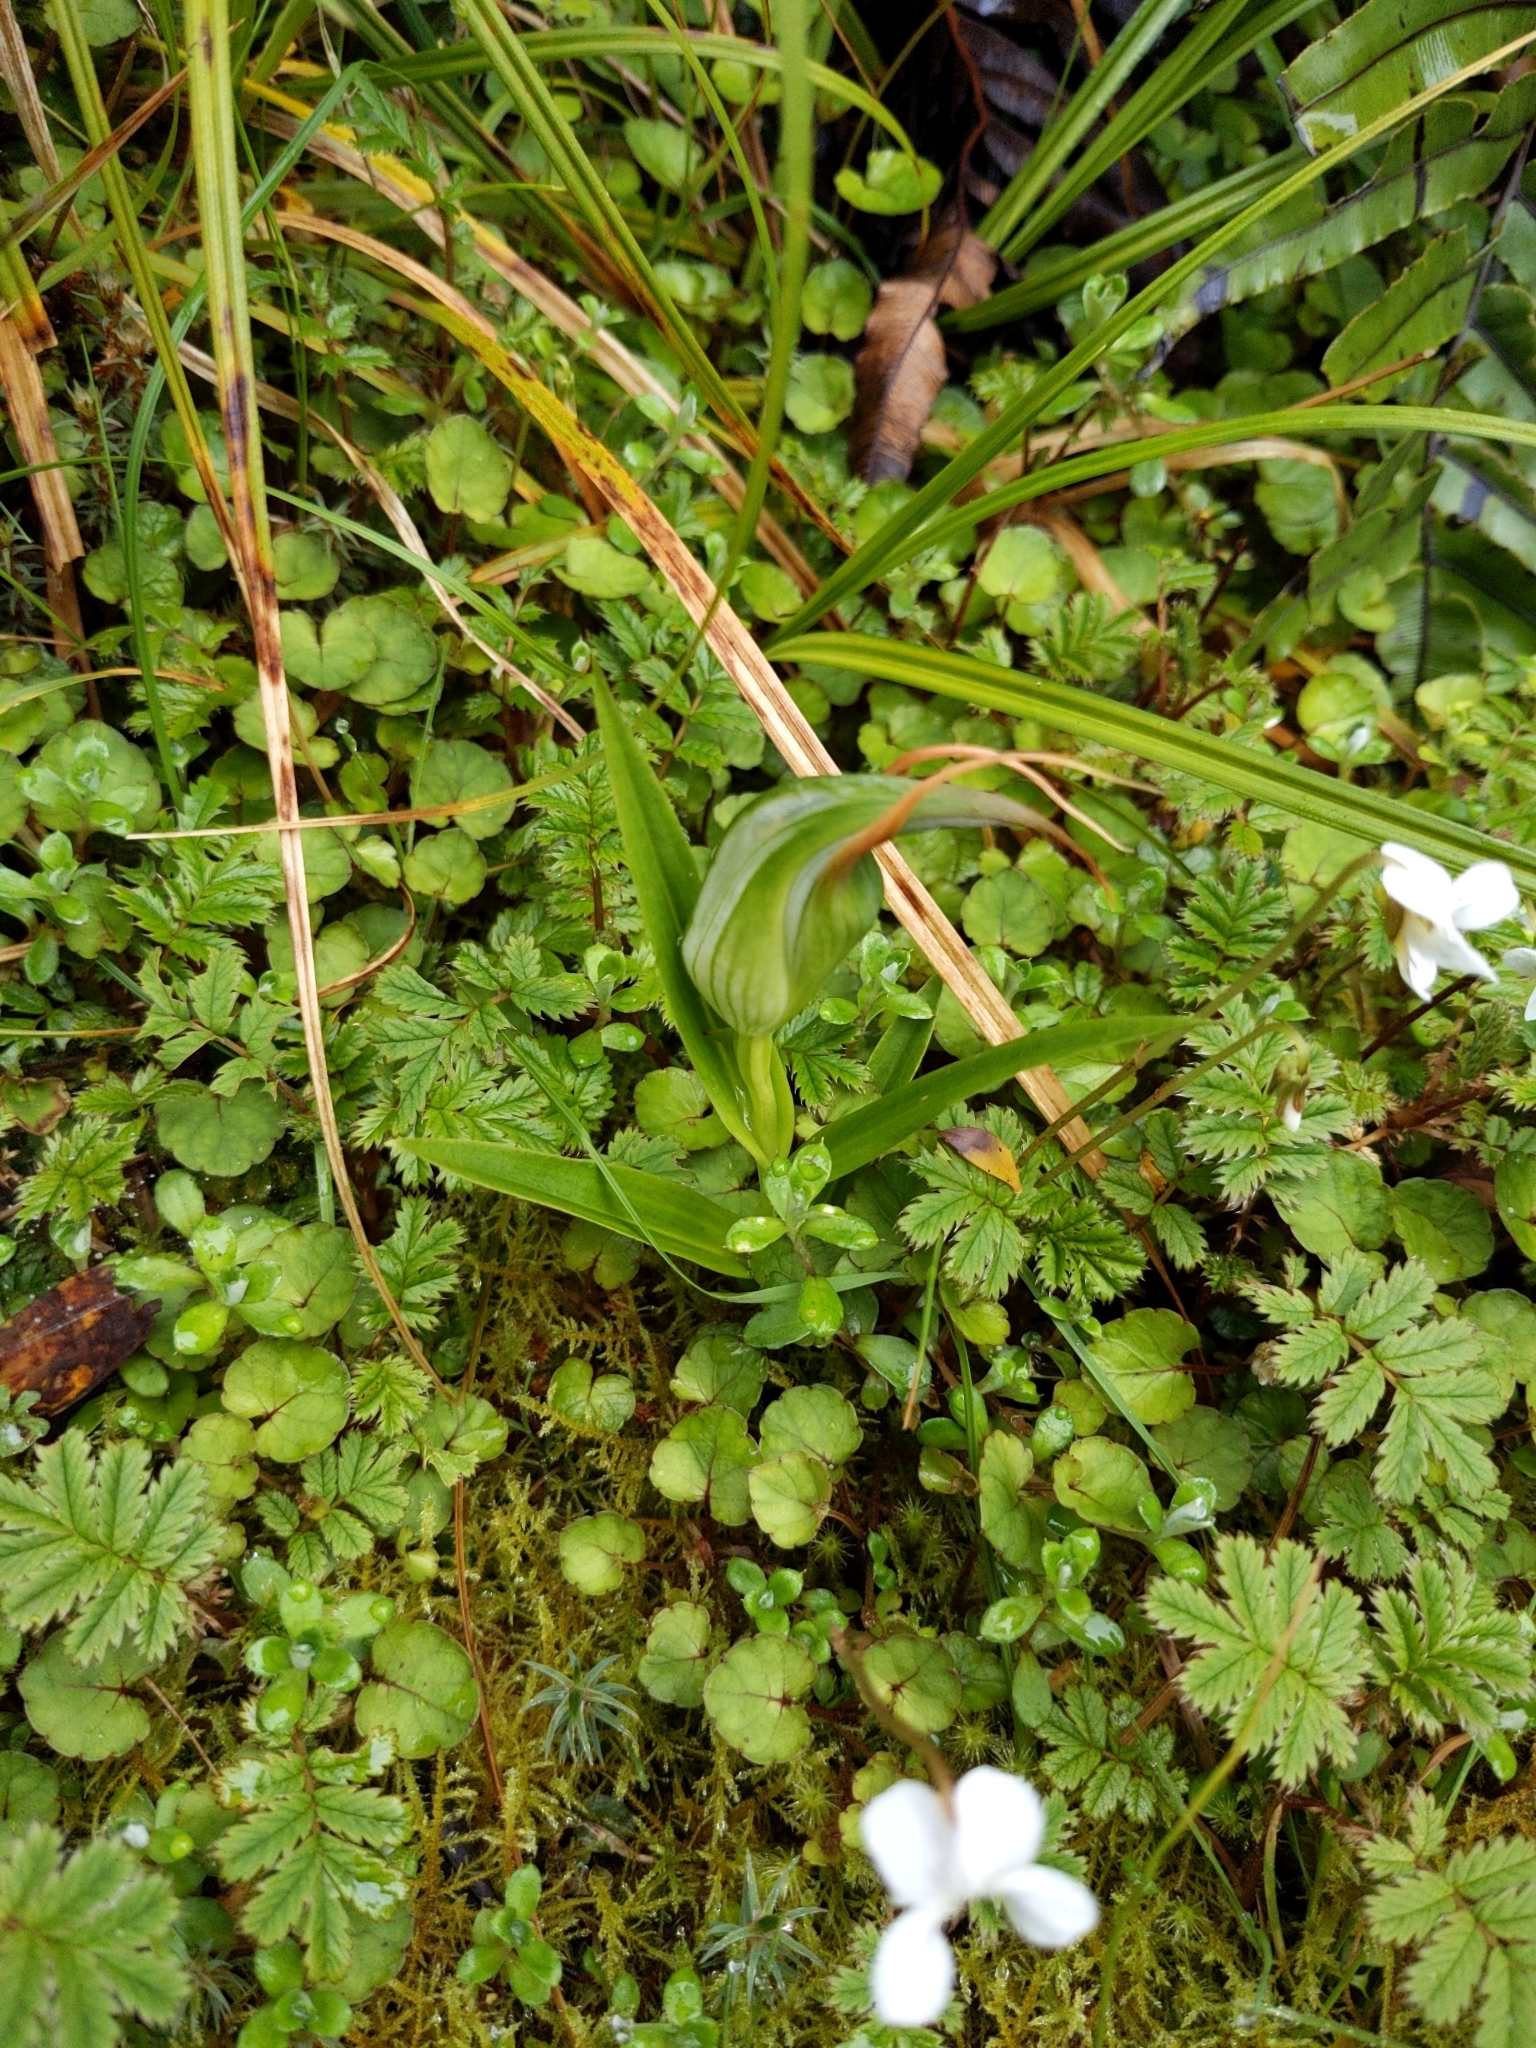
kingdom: Plantae
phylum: Tracheophyta
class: Liliopsida
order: Asparagales
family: Orchidaceae
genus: Pterostylis
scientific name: Pterostylis banksii
